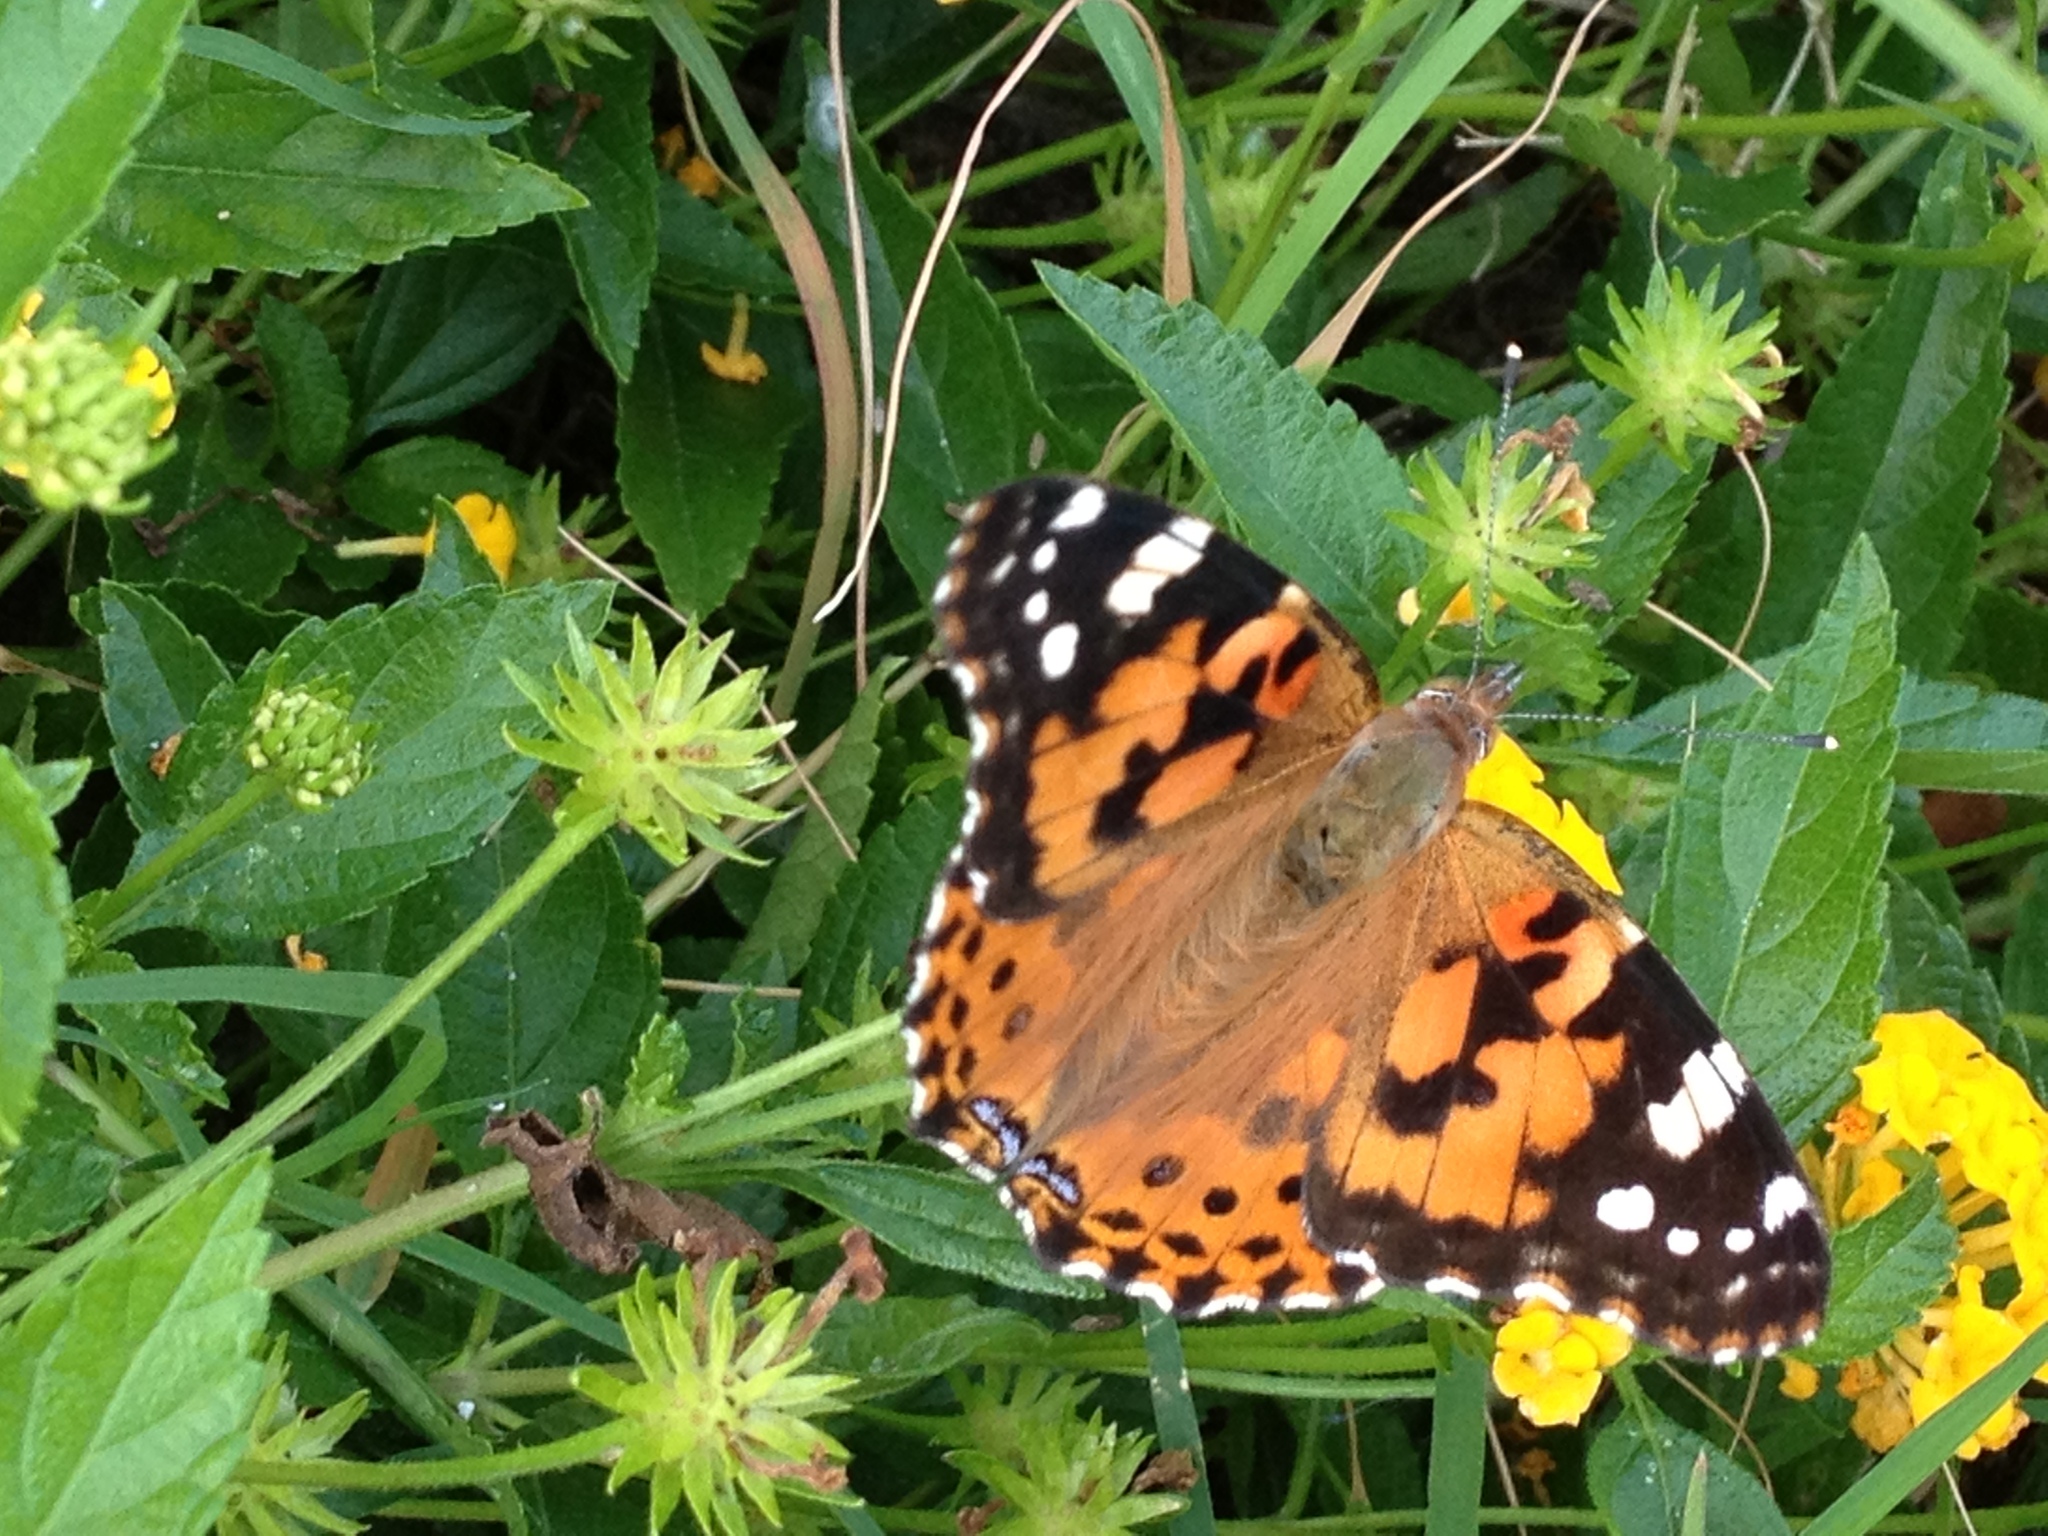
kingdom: Animalia
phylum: Arthropoda
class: Insecta
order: Lepidoptera
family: Nymphalidae
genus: Vanessa
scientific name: Vanessa cardui
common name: Painted lady
